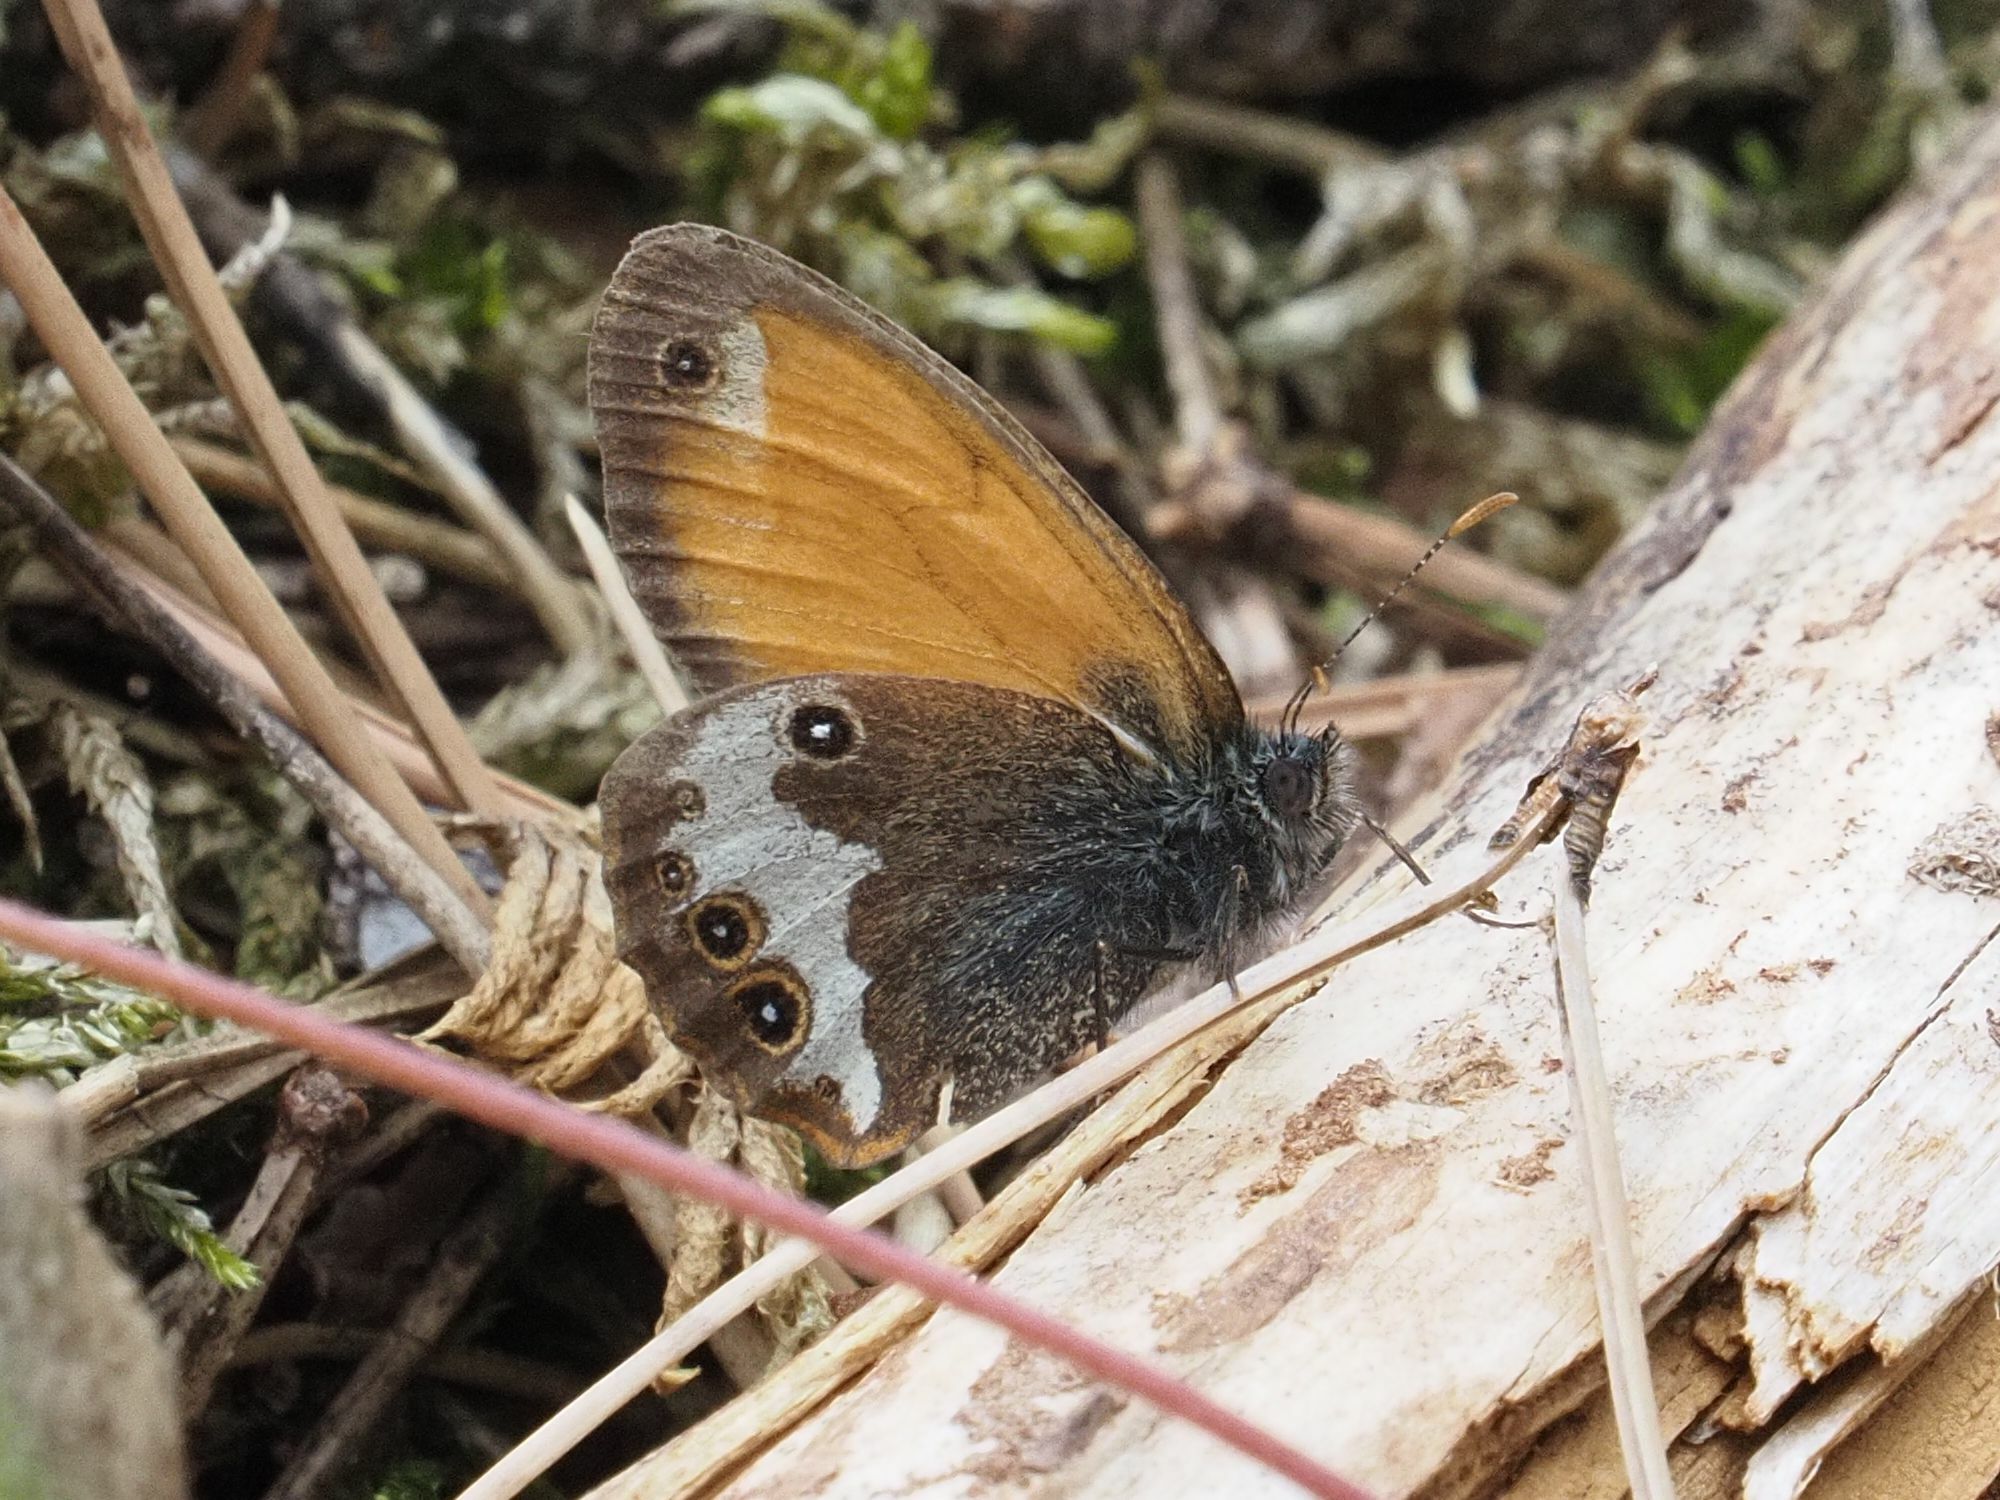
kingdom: Animalia
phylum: Arthropoda
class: Insecta
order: Lepidoptera
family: Nymphalidae
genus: Coenonympha
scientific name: Coenonympha arcania
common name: Pearly heath
